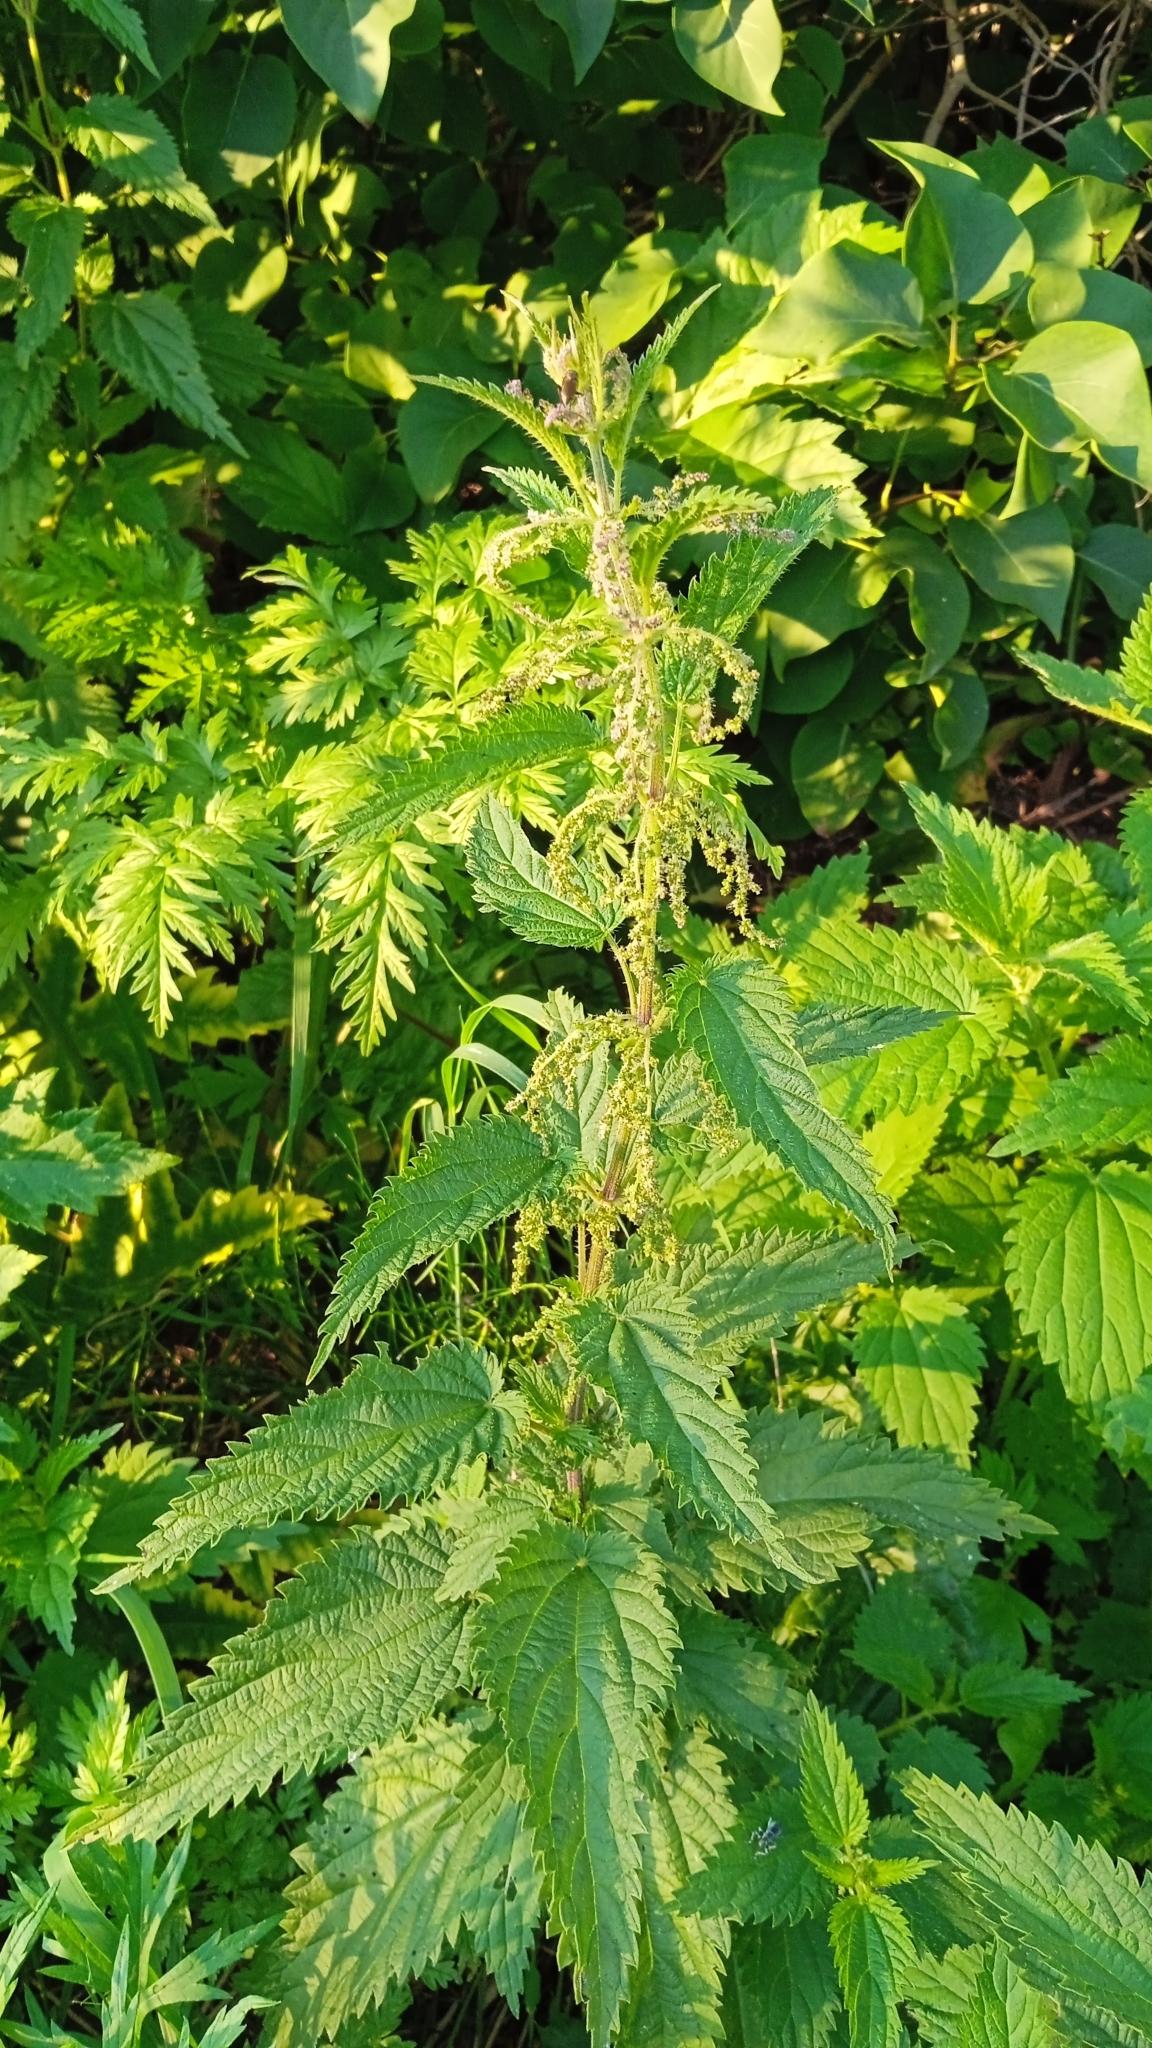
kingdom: Plantae
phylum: Tracheophyta
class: Magnoliopsida
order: Rosales
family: Urticaceae
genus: Urtica
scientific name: Urtica dioica
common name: Common nettle
